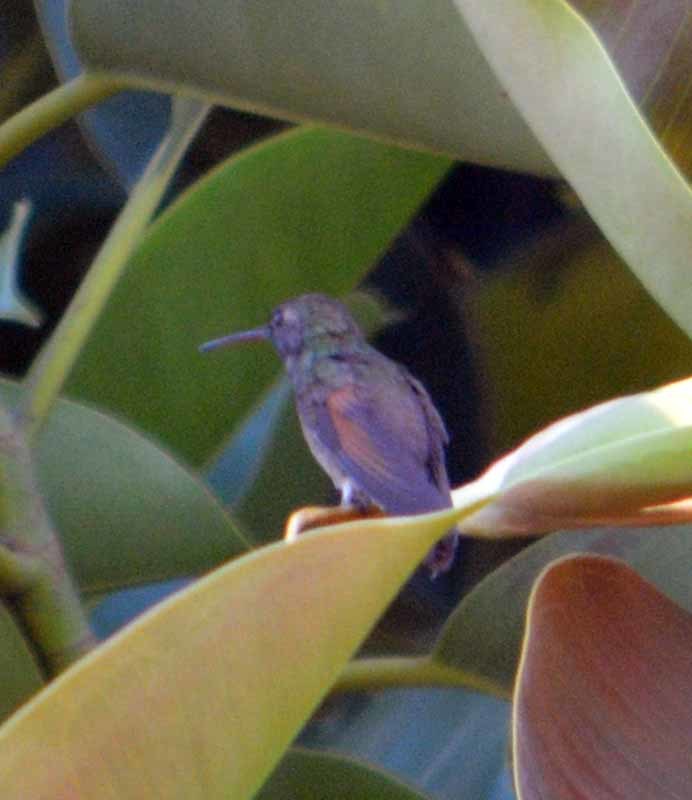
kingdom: Animalia
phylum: Chordata
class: Aves
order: Apodiformes
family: Trochilidae
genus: Saucerottia
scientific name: Saucerottia beryllina
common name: Berylline hummingbird
